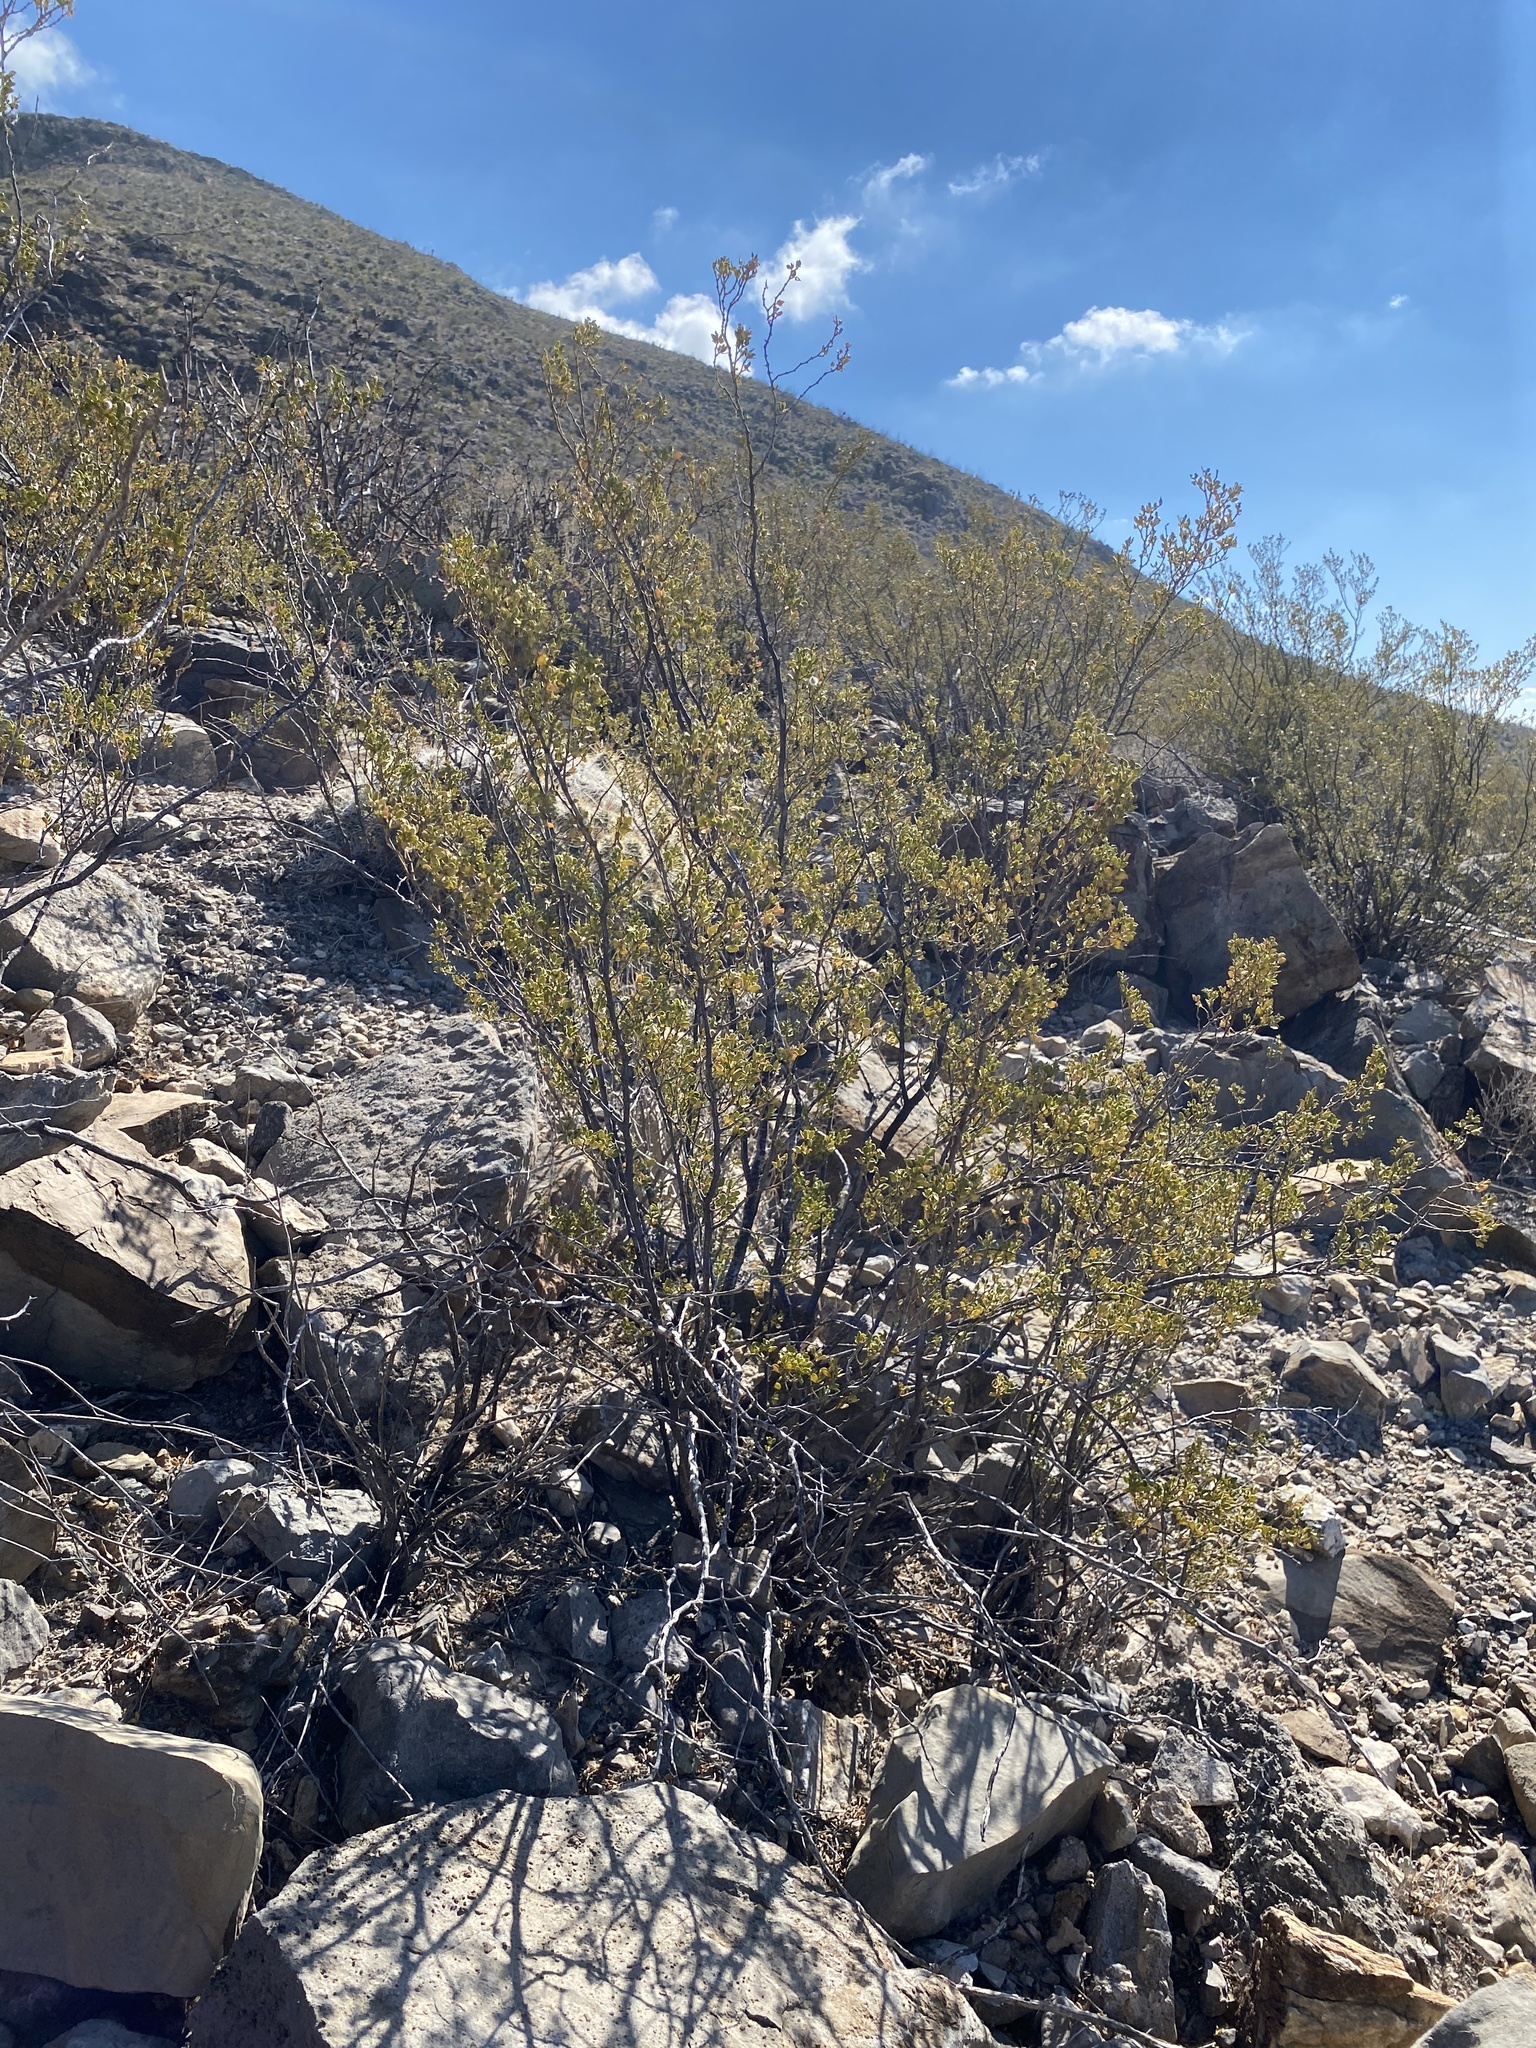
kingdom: Plantae
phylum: Tracheophyta
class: Magnoliopsida
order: Zygophyllales
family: Zygophyllaceae
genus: Larrea
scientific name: Larrea tridentata
